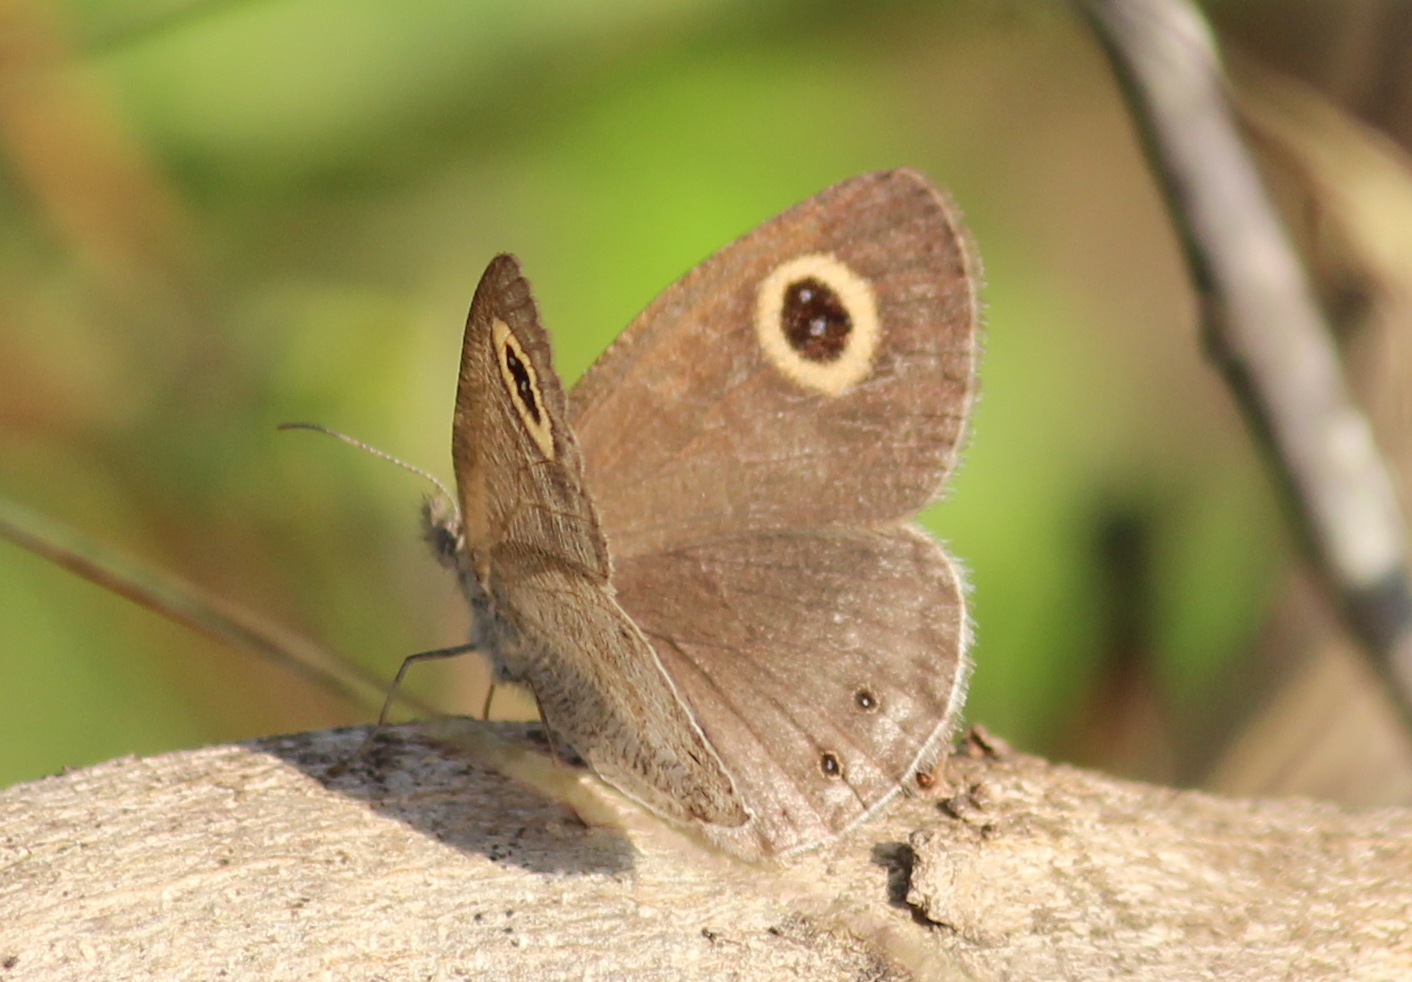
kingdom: Animalia
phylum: Arthropoda
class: Insecta
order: Lepidoptera
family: Nymphalidae
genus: Ypthima
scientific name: Ypthima baldus
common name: Common five-ring
